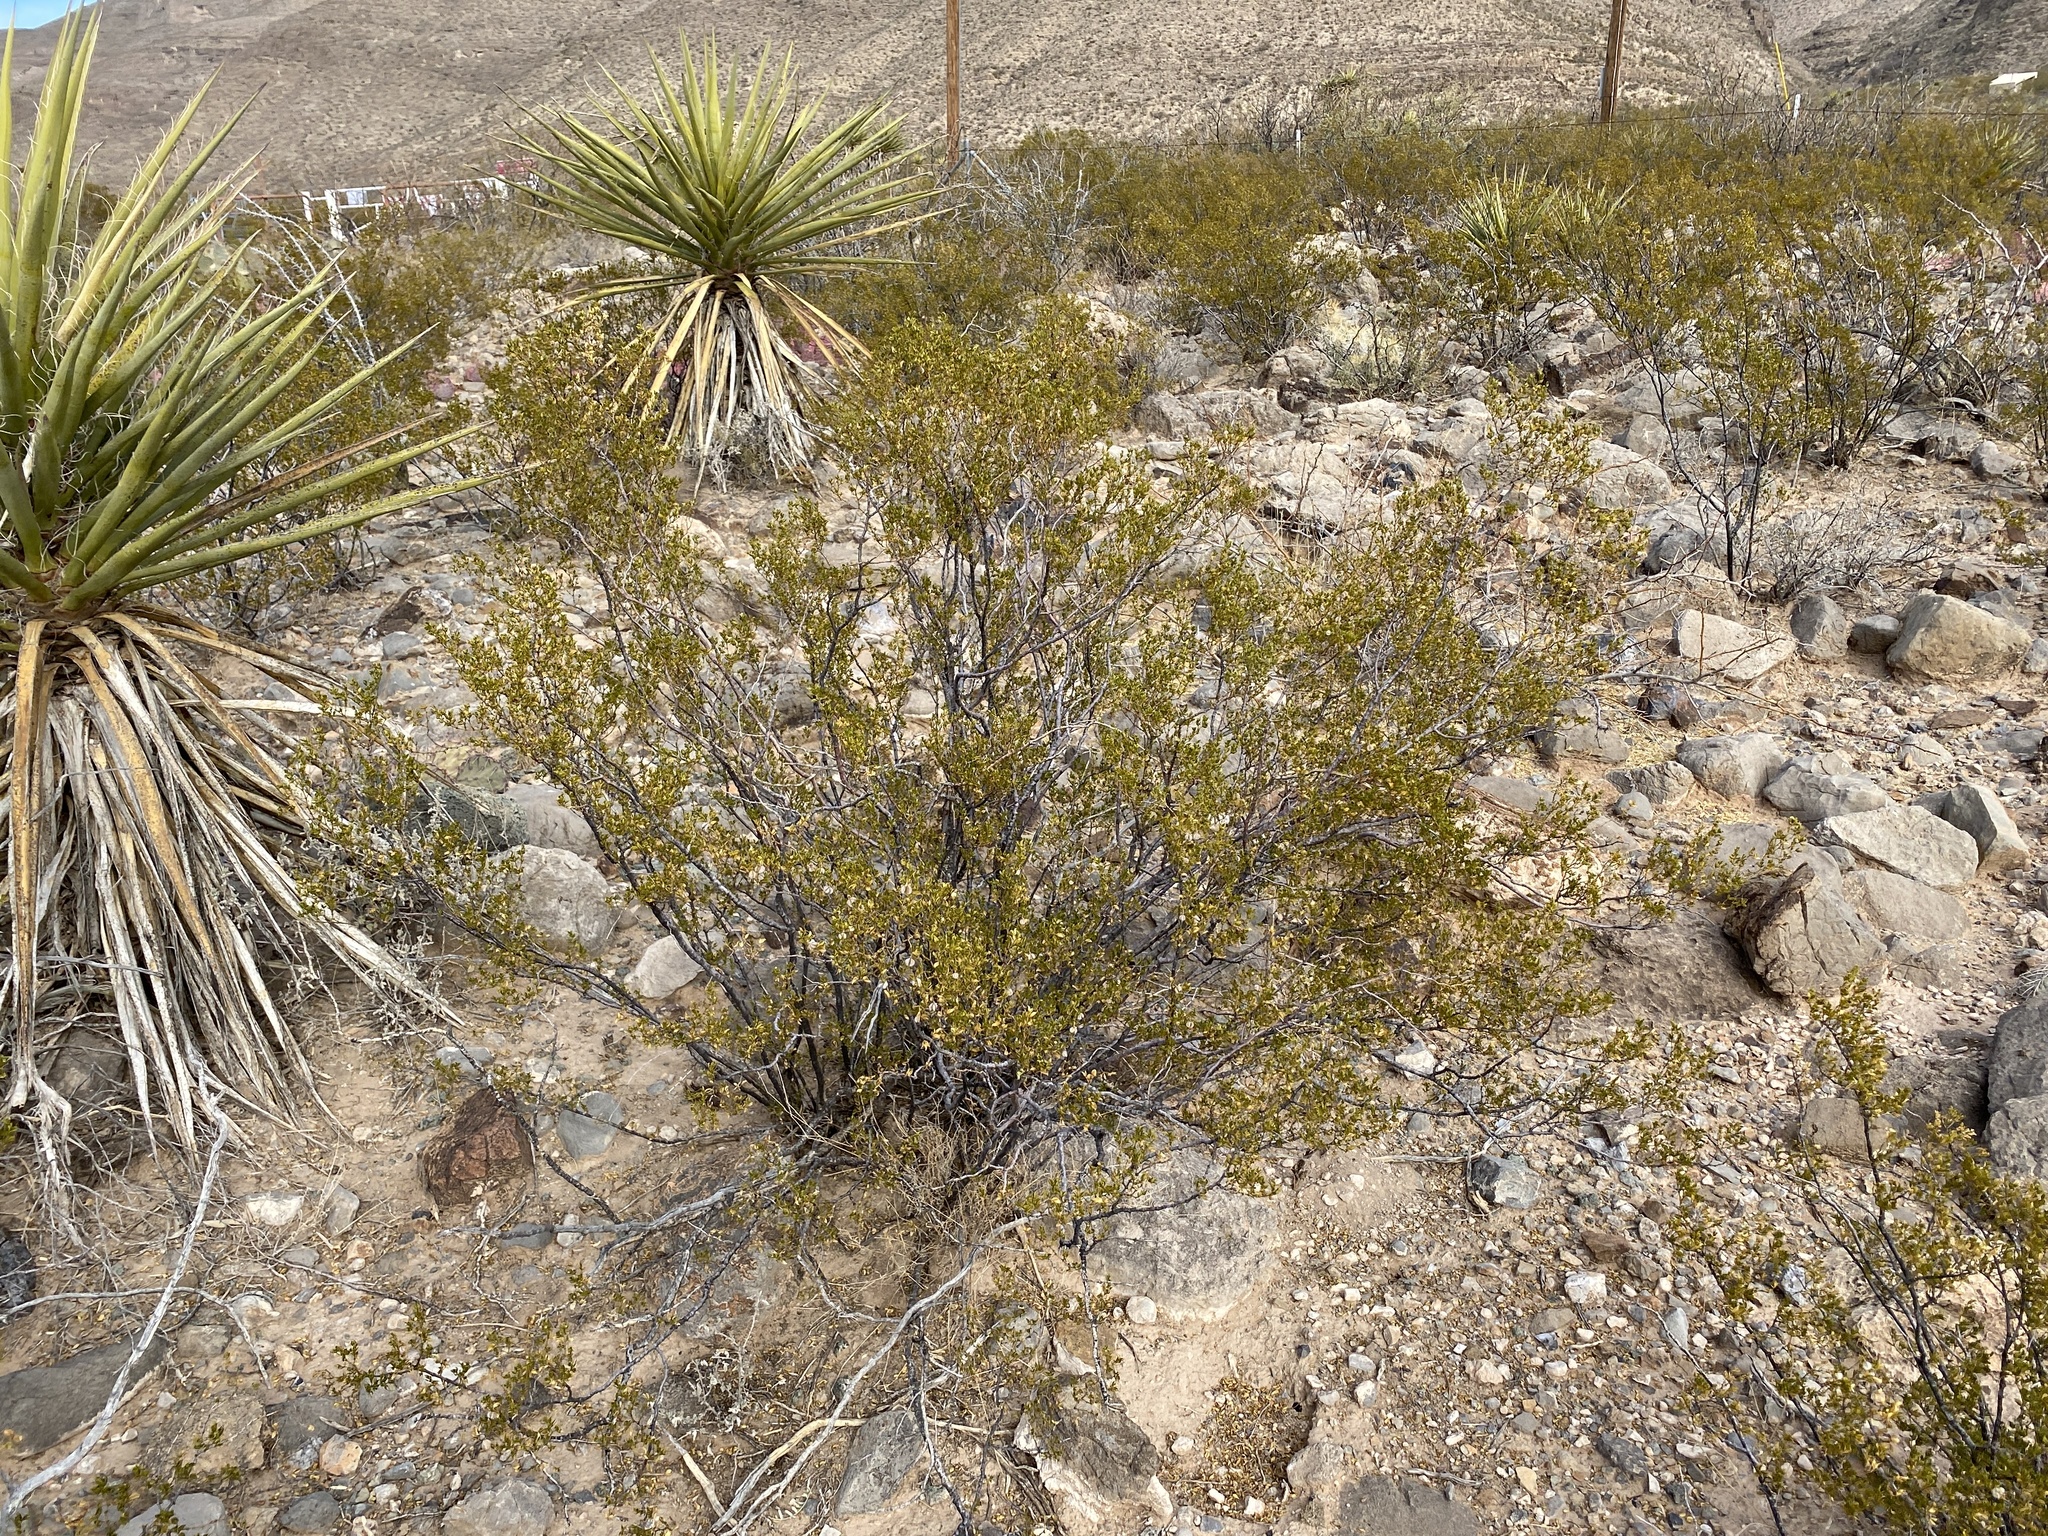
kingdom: Plantae
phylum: Tracheophyta
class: Magnoliopsida
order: Zygophyllales
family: Zygophyllaceae
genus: Larrea
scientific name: Larrea tridentata
